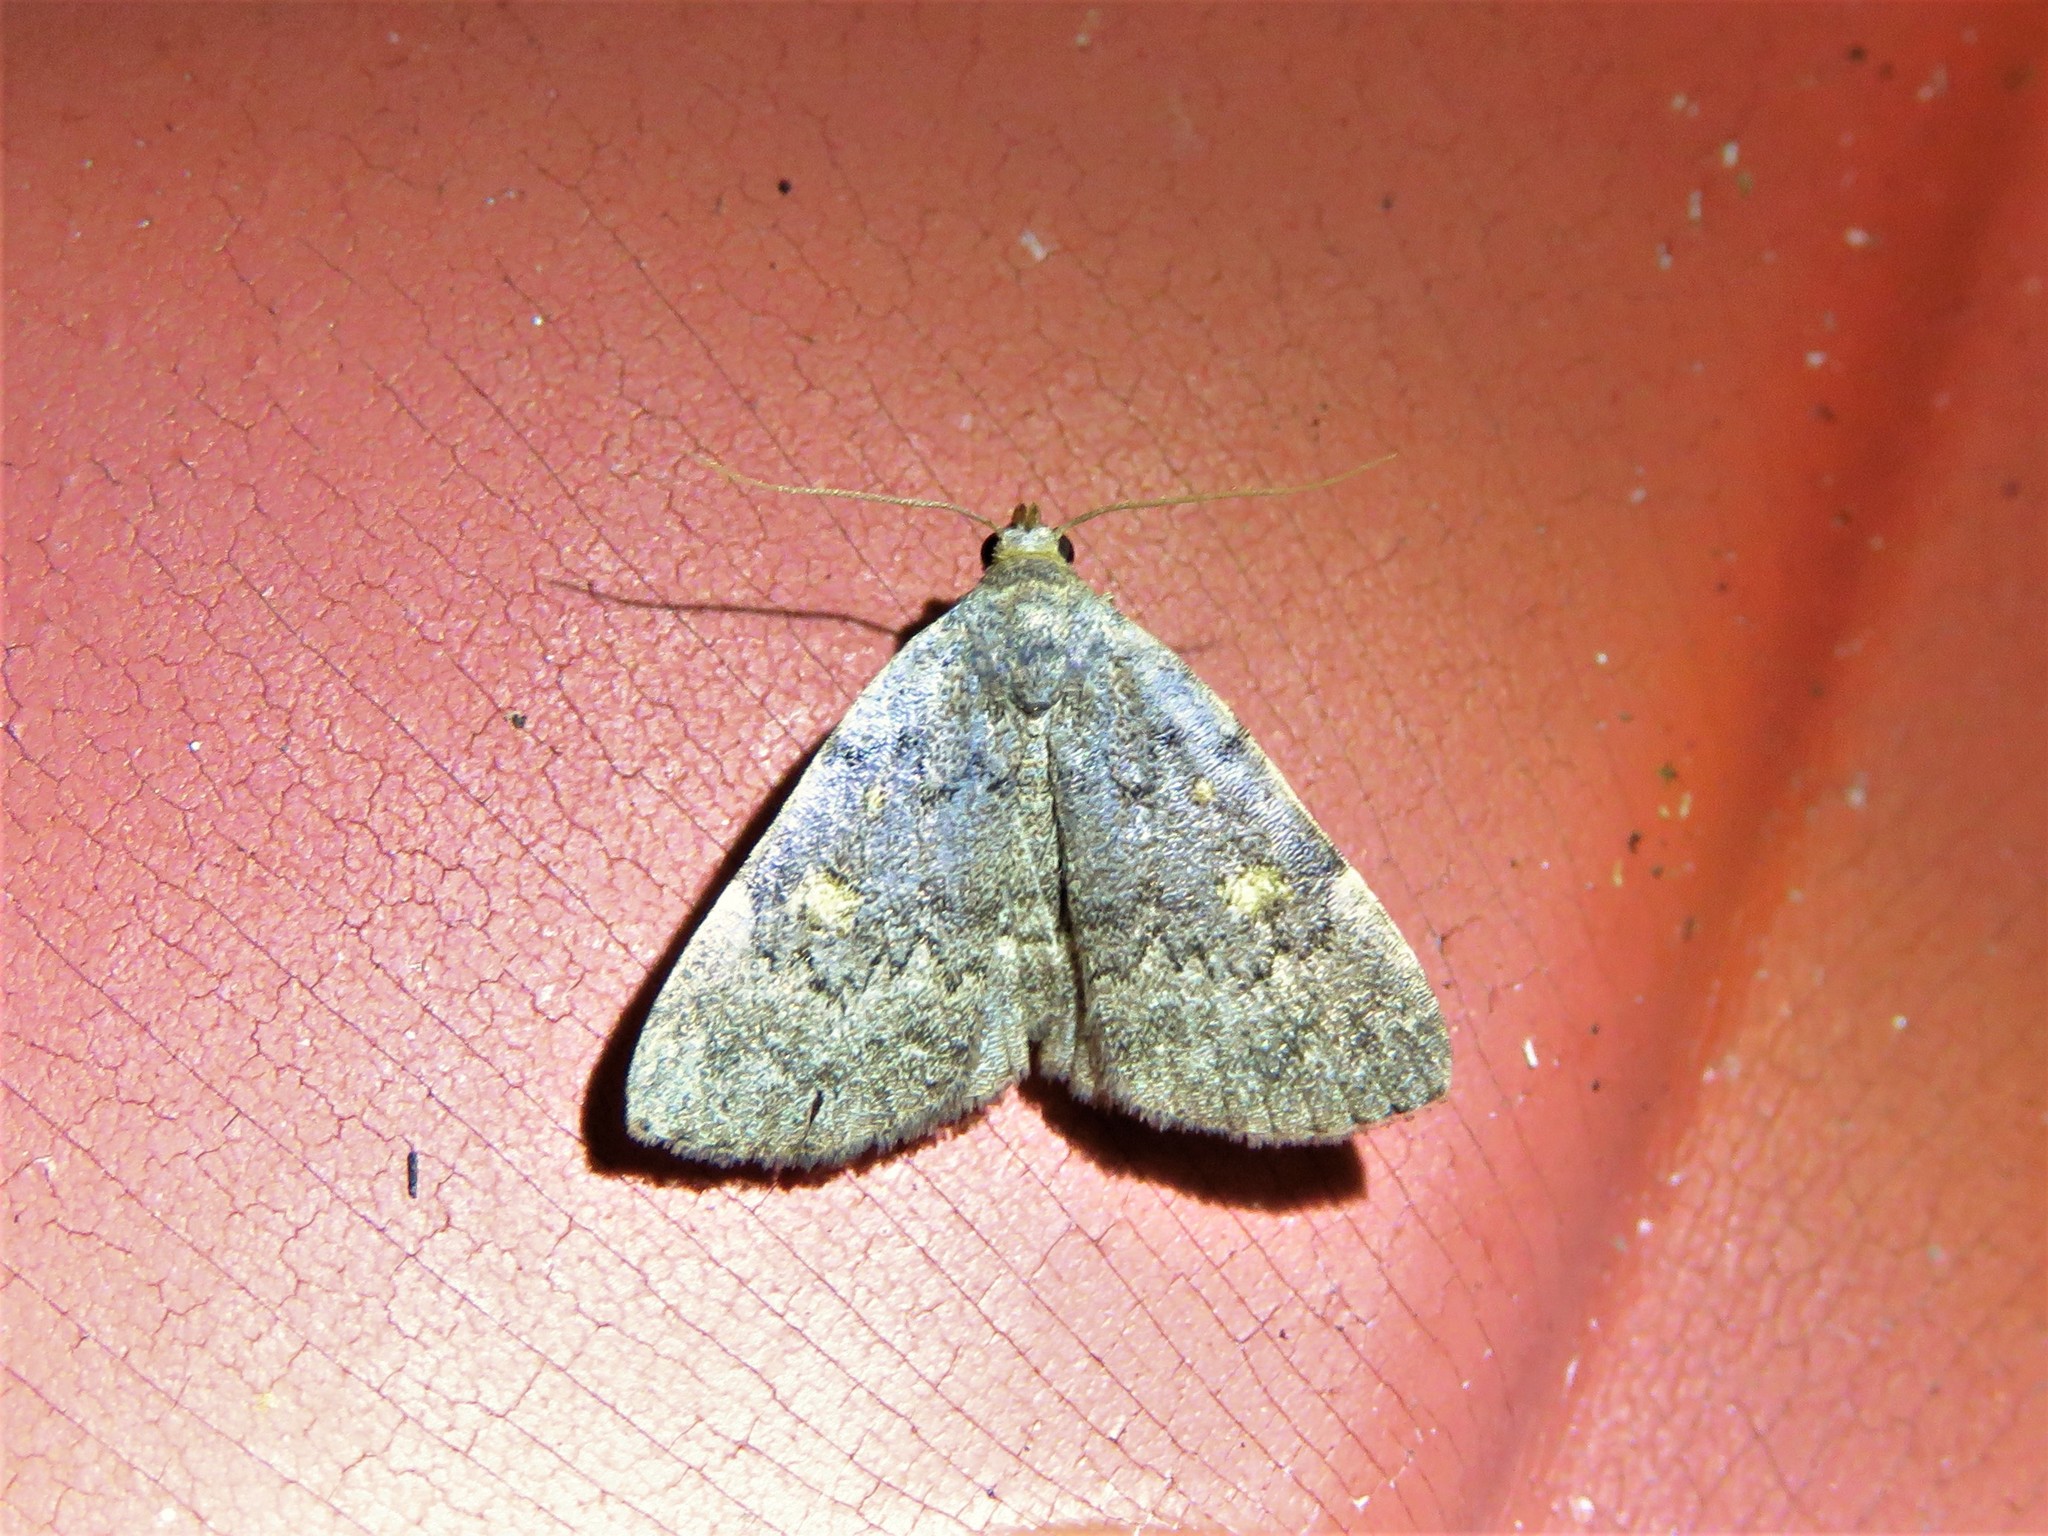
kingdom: Animalia
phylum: Arthropoda
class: Insecta
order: Lepidoptera
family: Erebidae
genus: Idia
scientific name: Idia aemula
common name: Common idia moth
